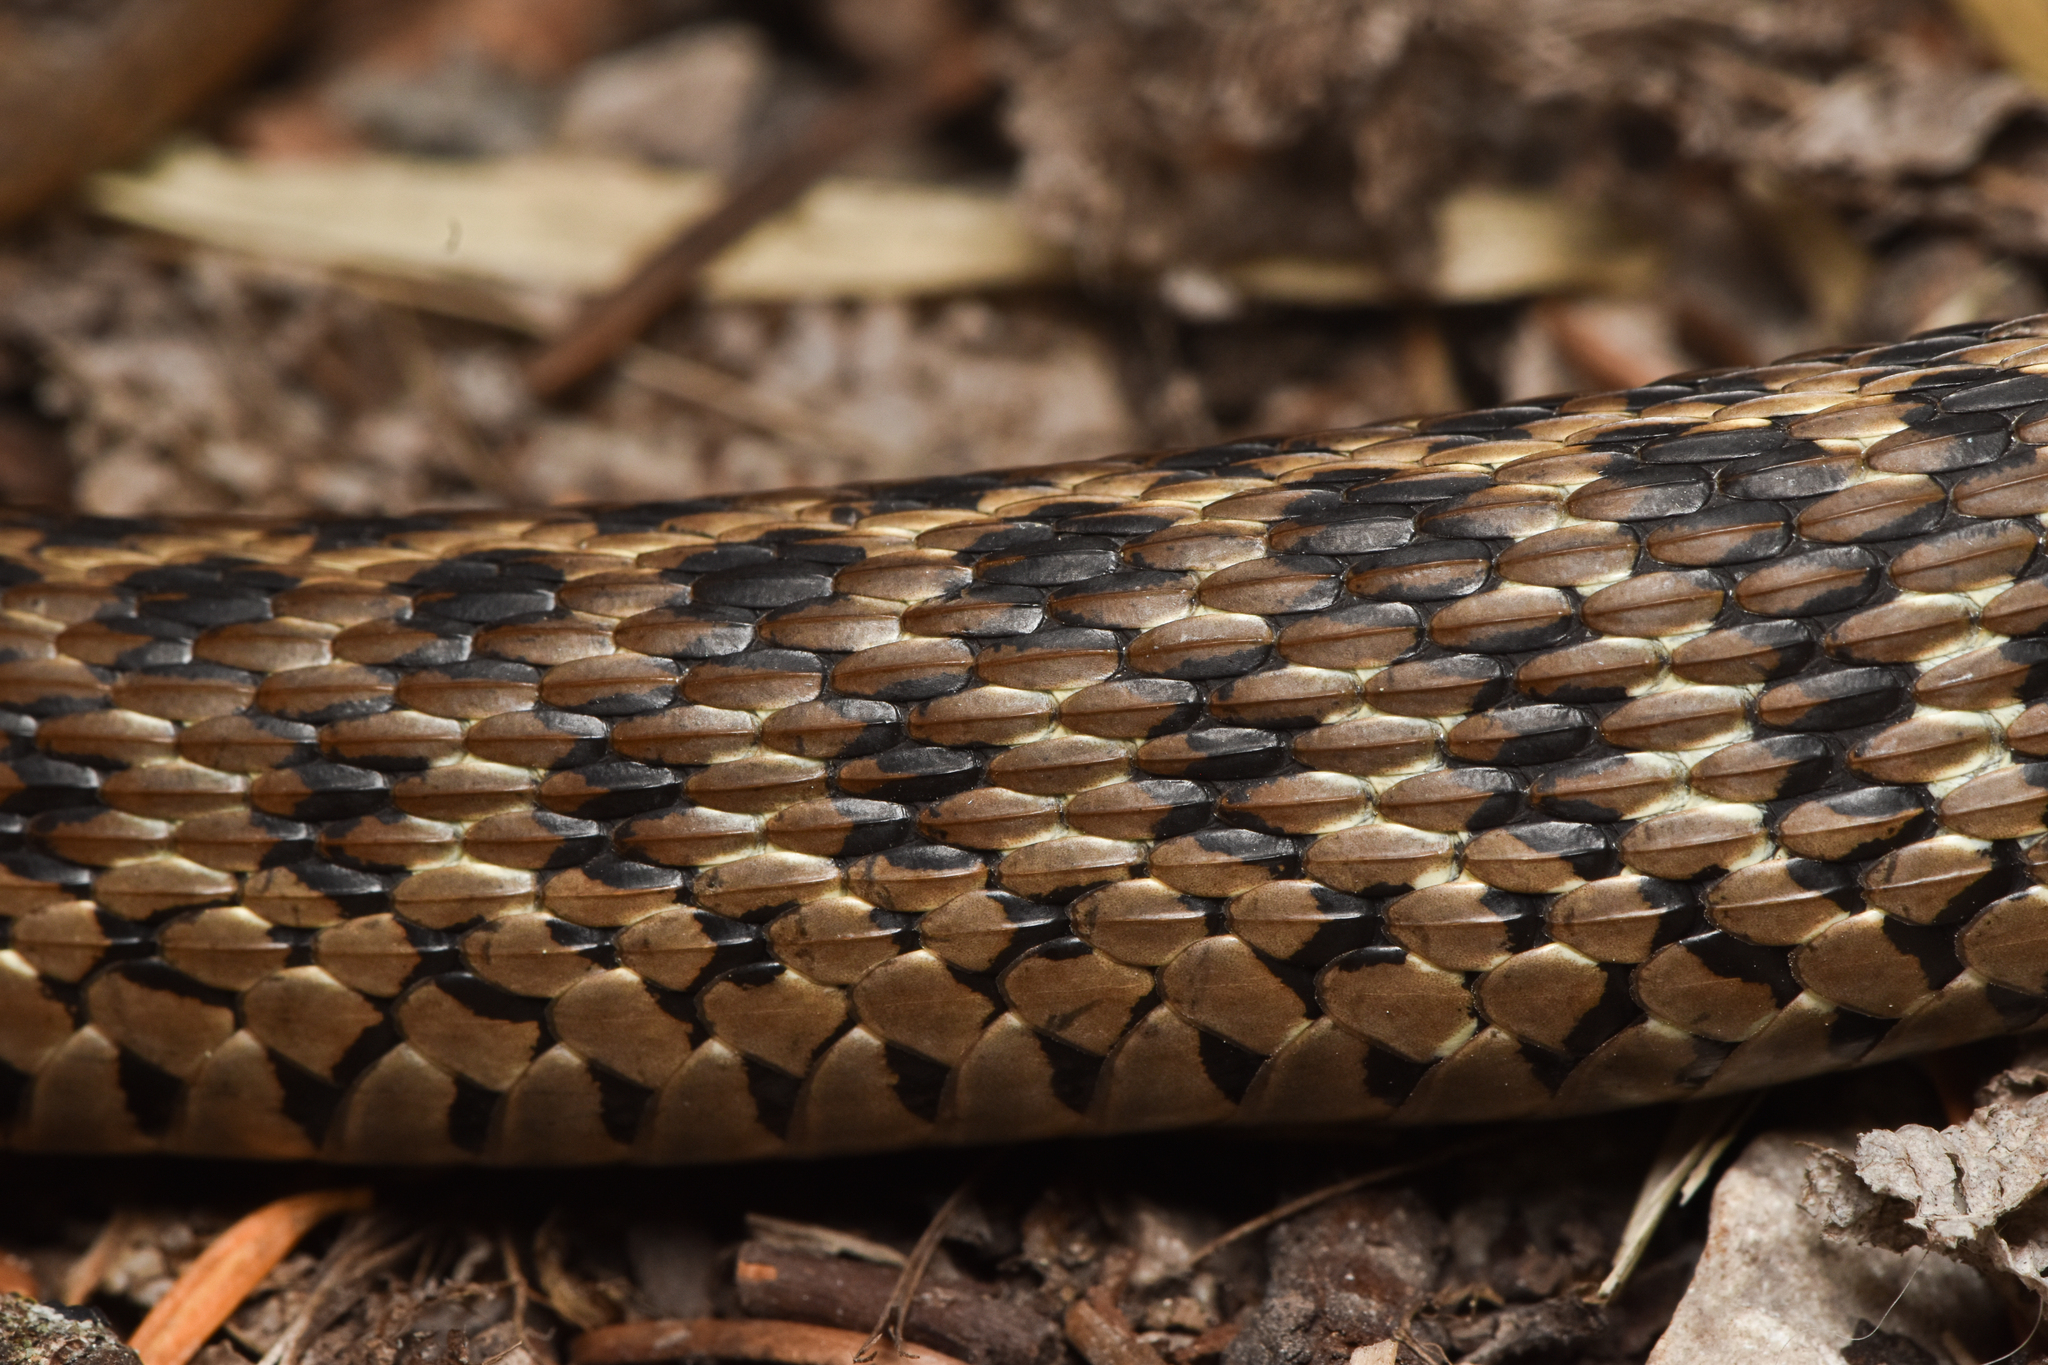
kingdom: Animalia
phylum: Chordata
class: Squamata
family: Colubridae
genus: Thamnophis
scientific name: Thamnophis elegans
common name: Western terrestrial garter snake
